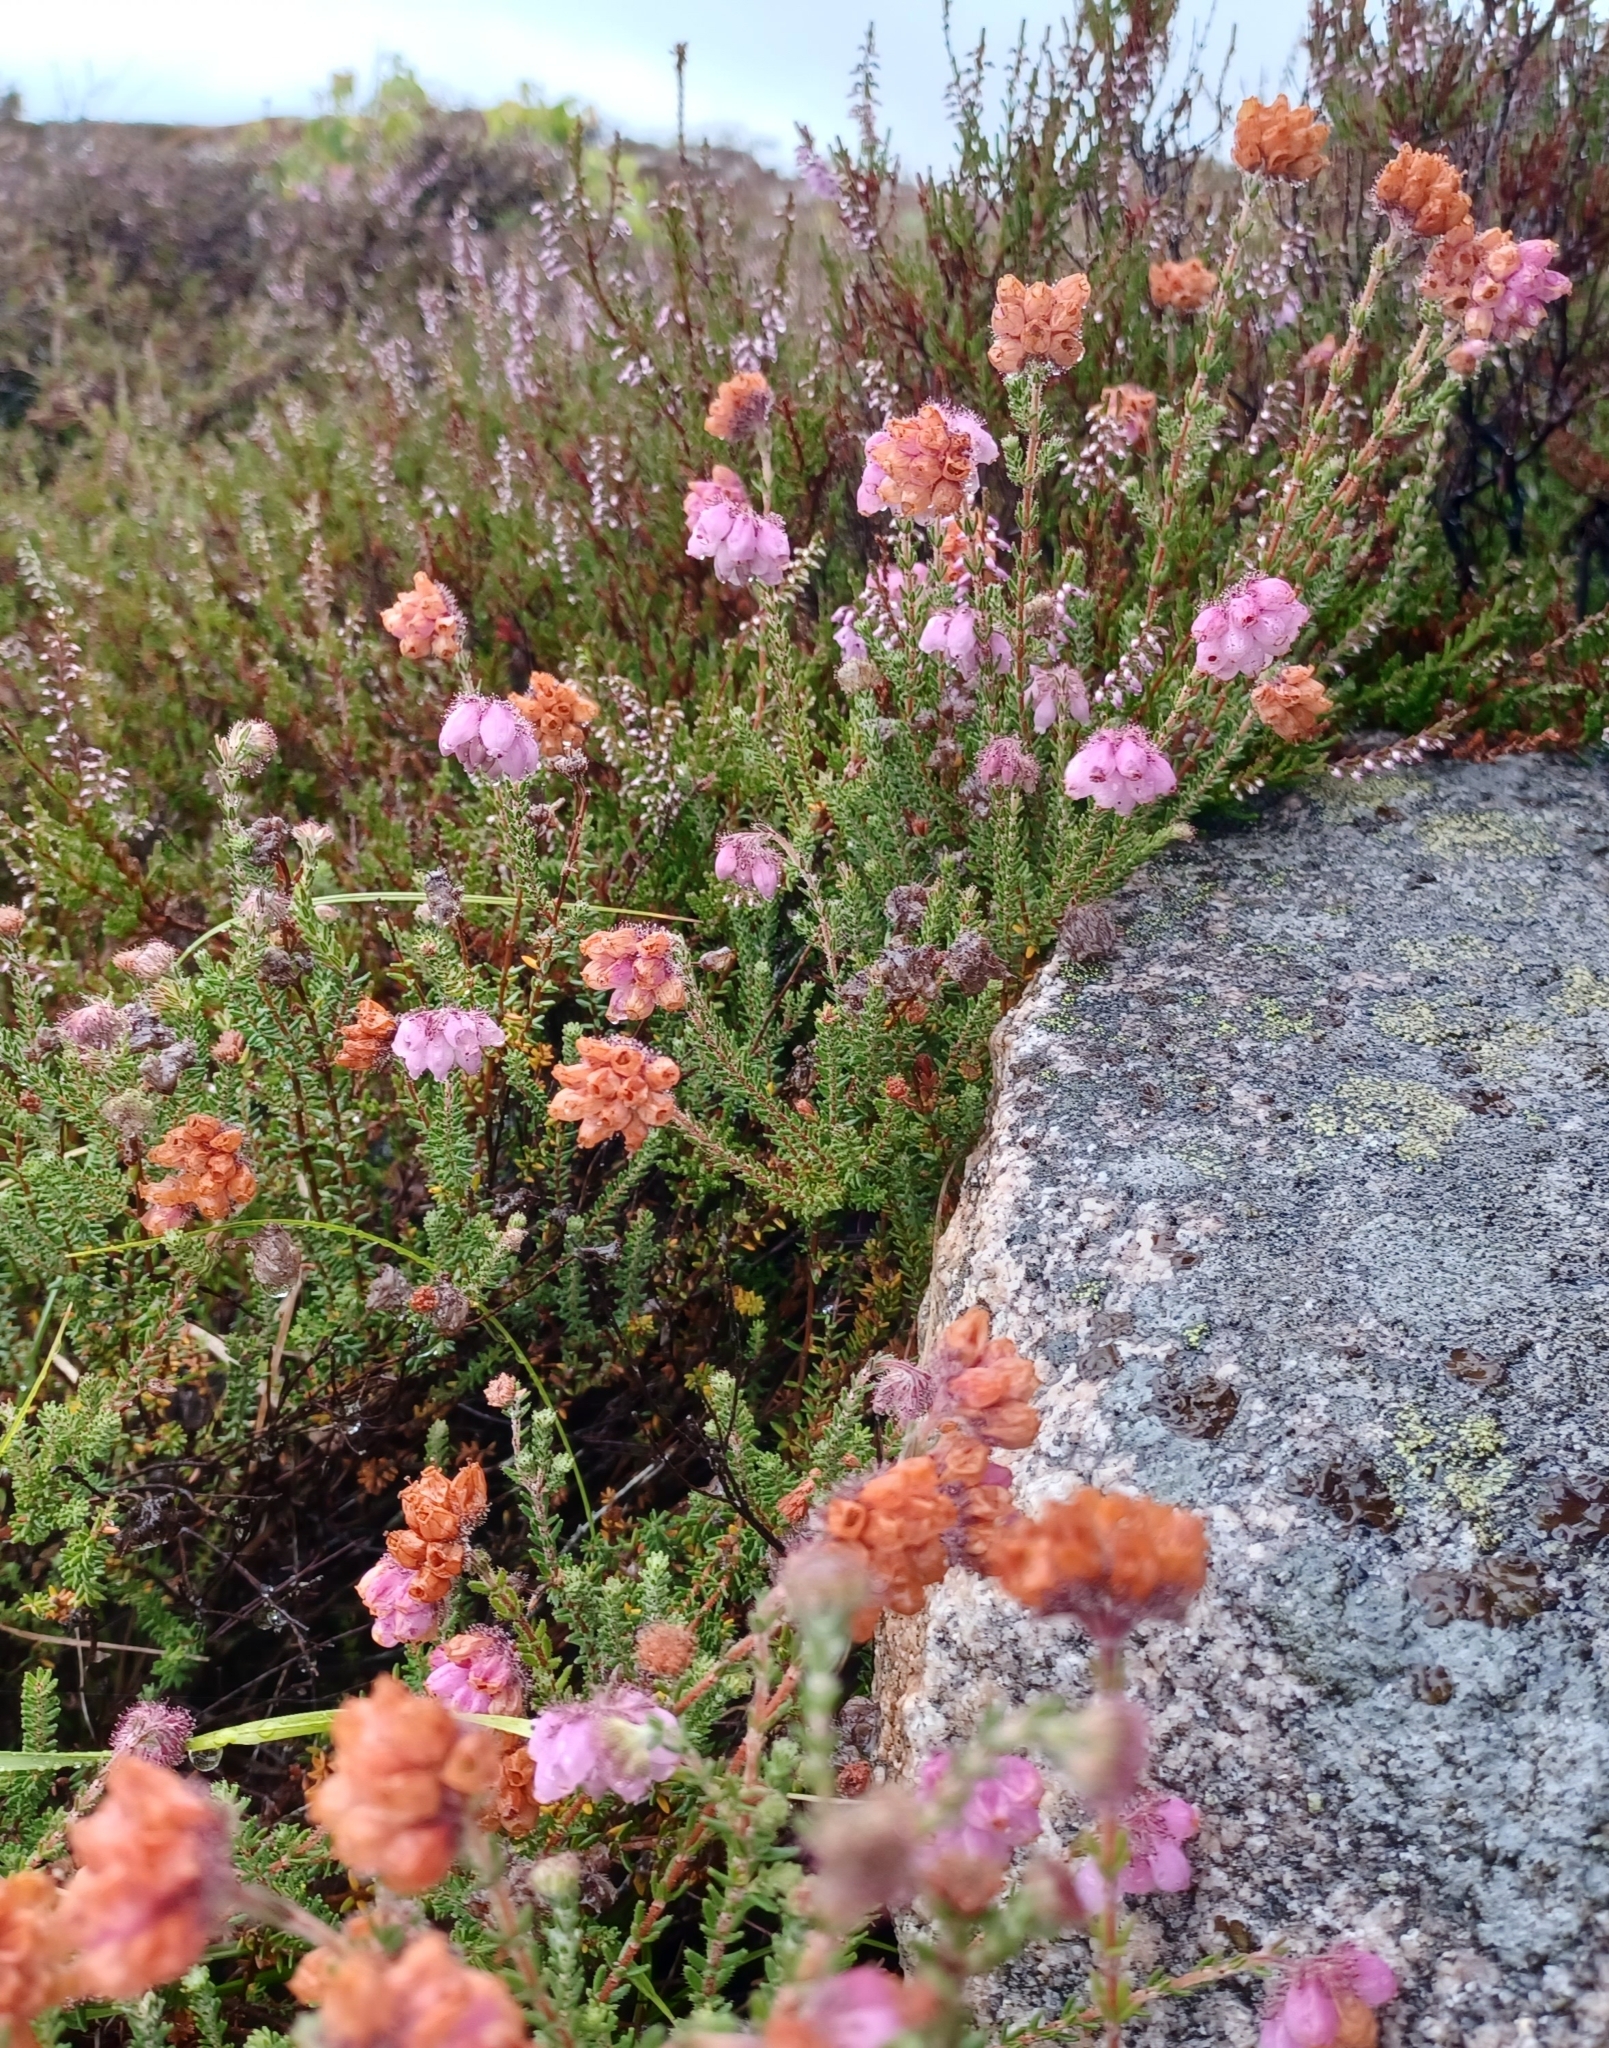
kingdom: Plantae
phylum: Tracheophyta
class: Magnoliopsida
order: Ericales
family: Ericaceae
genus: Erica
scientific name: Erica tetralix
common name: Cross-leaved heath
